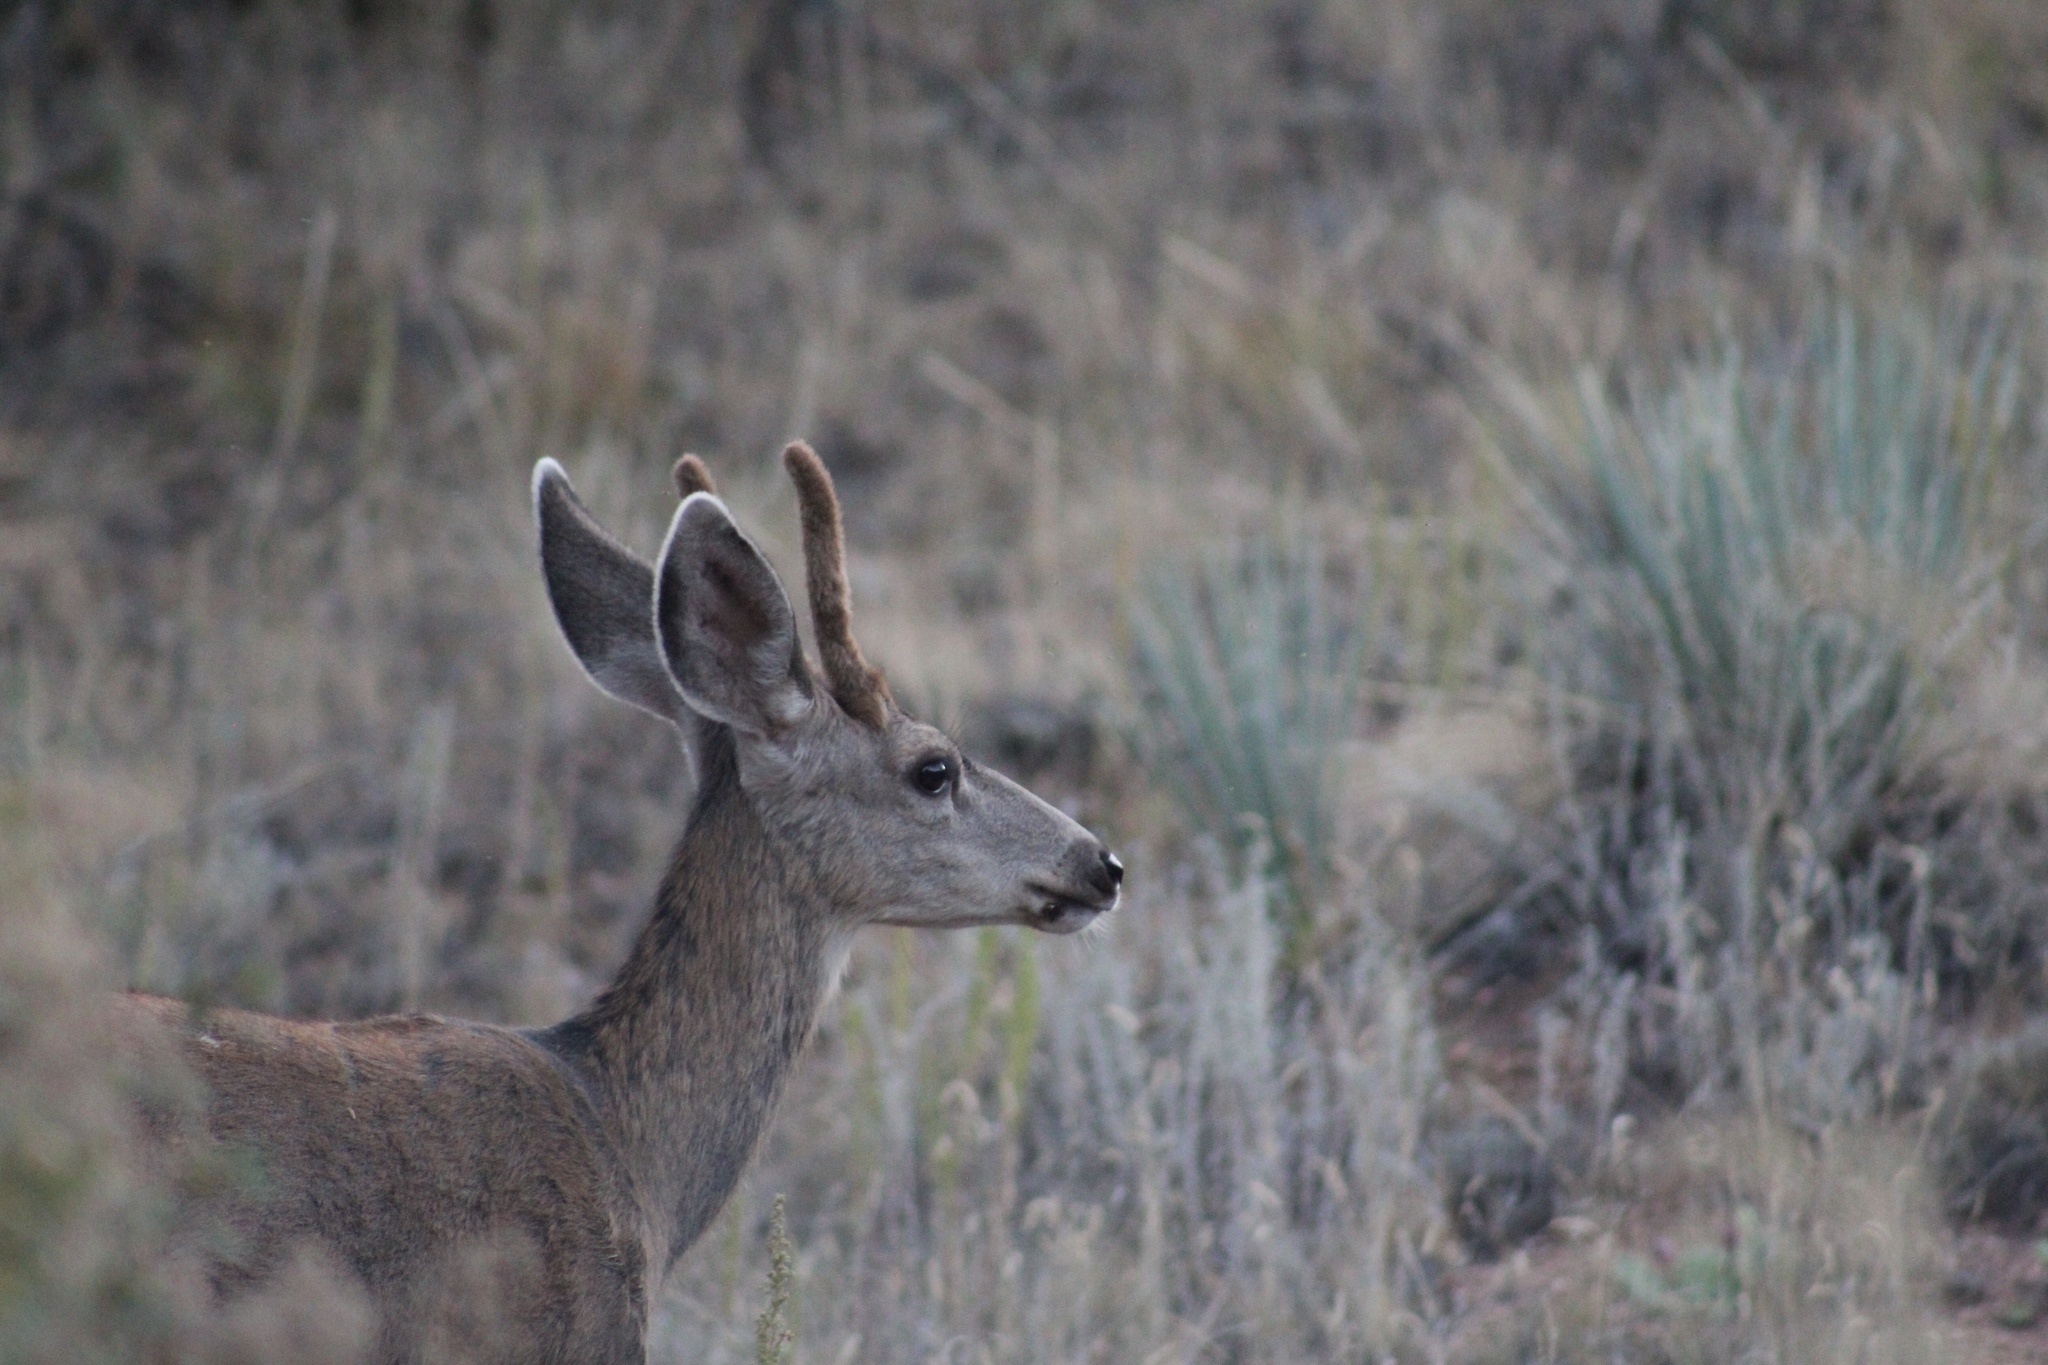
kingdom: Animalia
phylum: Chordata
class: Mammalia
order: Artiodactyla
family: Cervidae
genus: Odocoileus
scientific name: Odocoileus hemionus
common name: Mule deer
